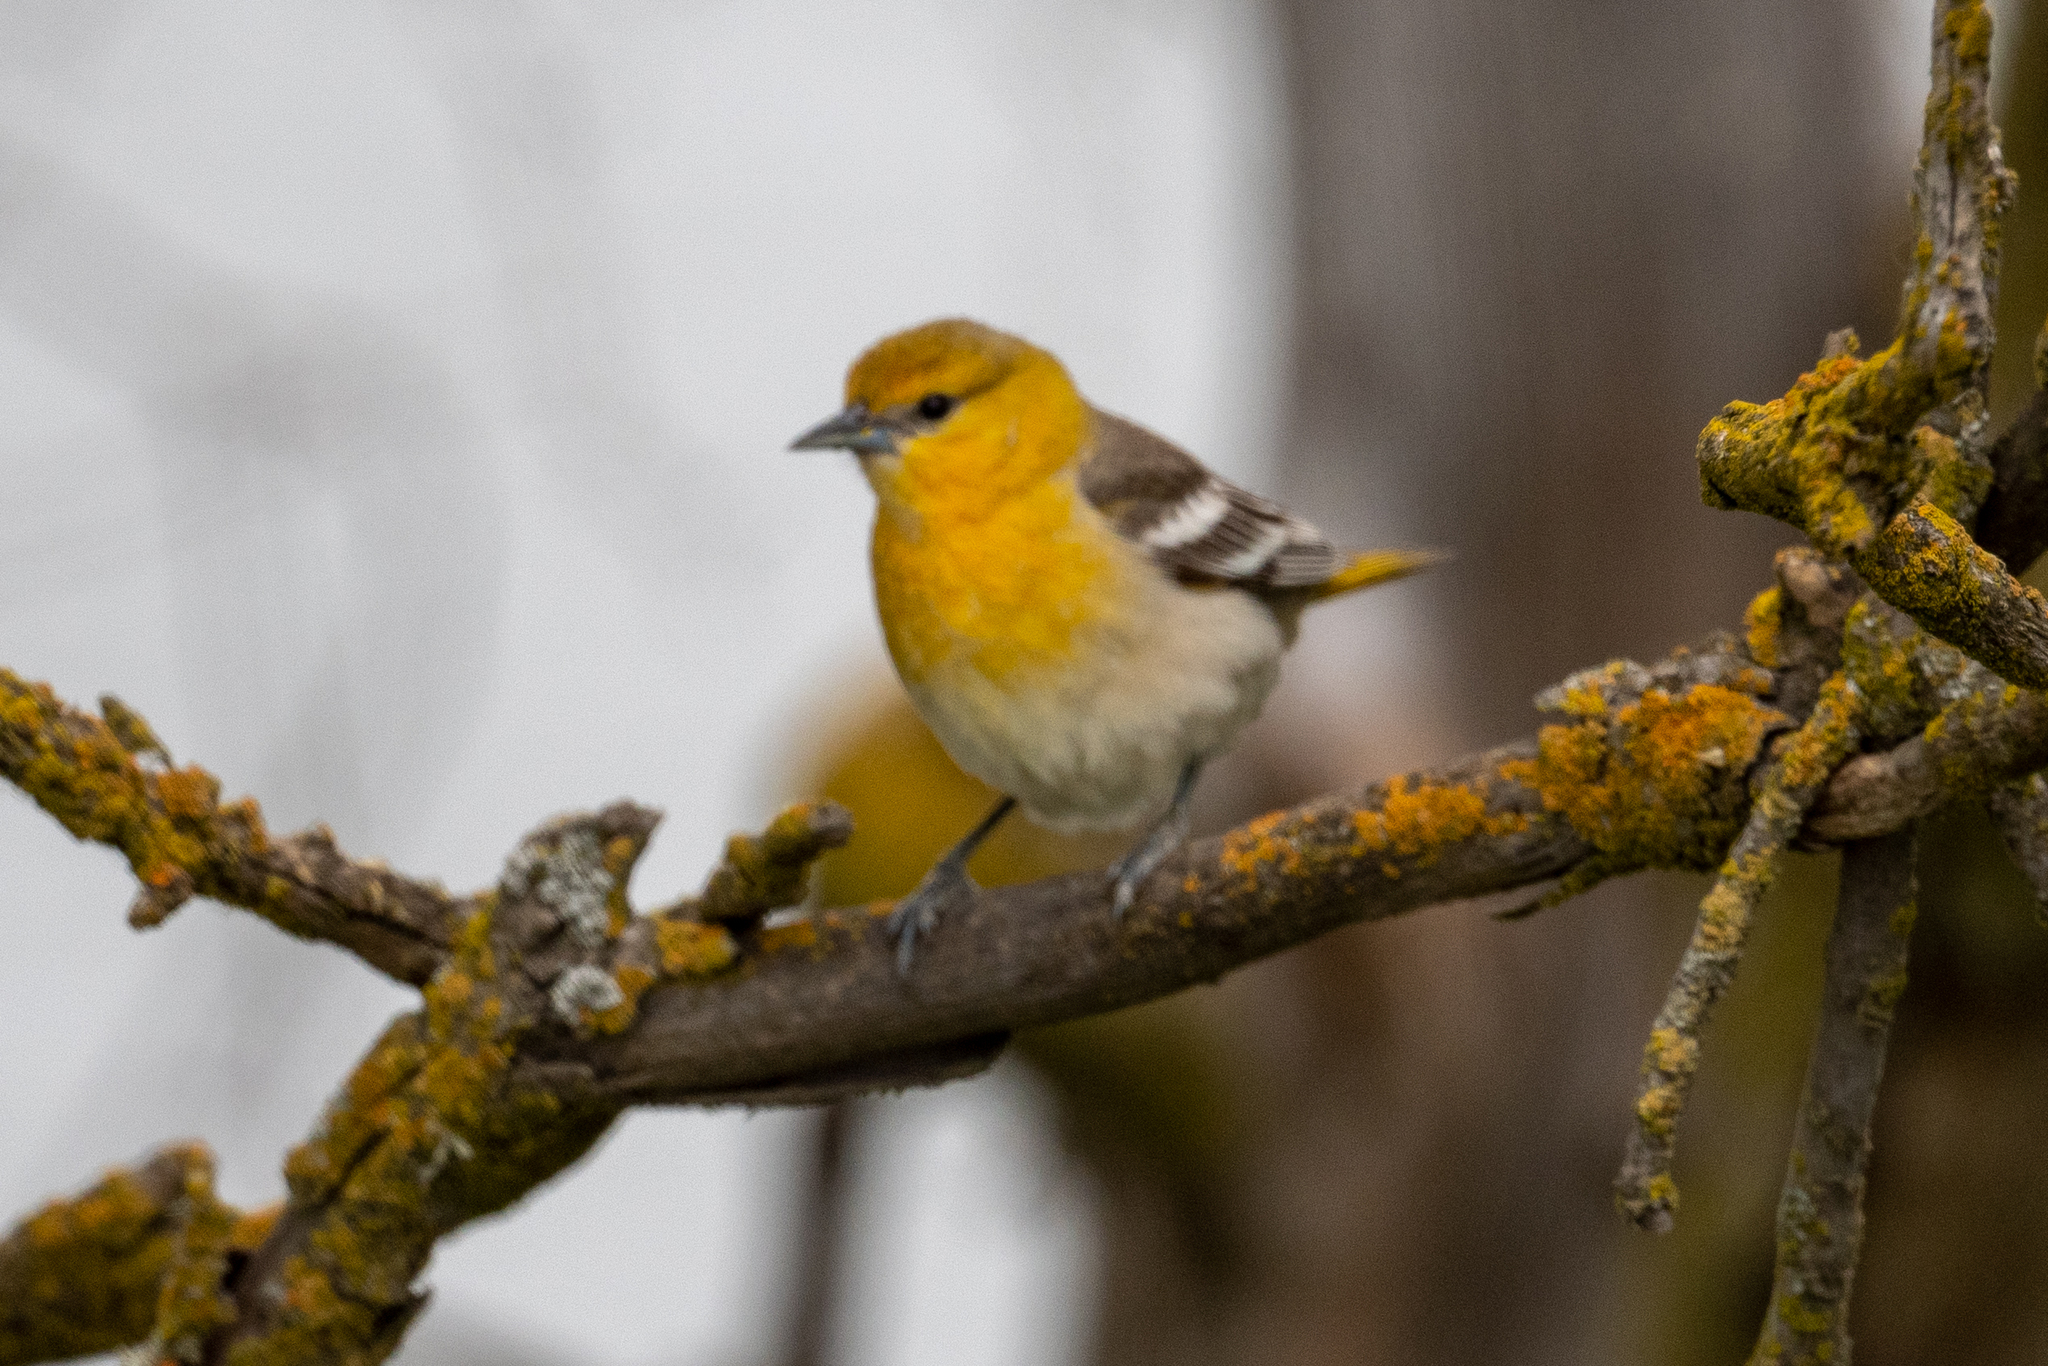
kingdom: Animalia
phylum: Chordata
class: Aves
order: Passeriformes
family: Icteridae
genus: Icterus
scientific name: Icterus bullockii
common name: Bullock's oriole
